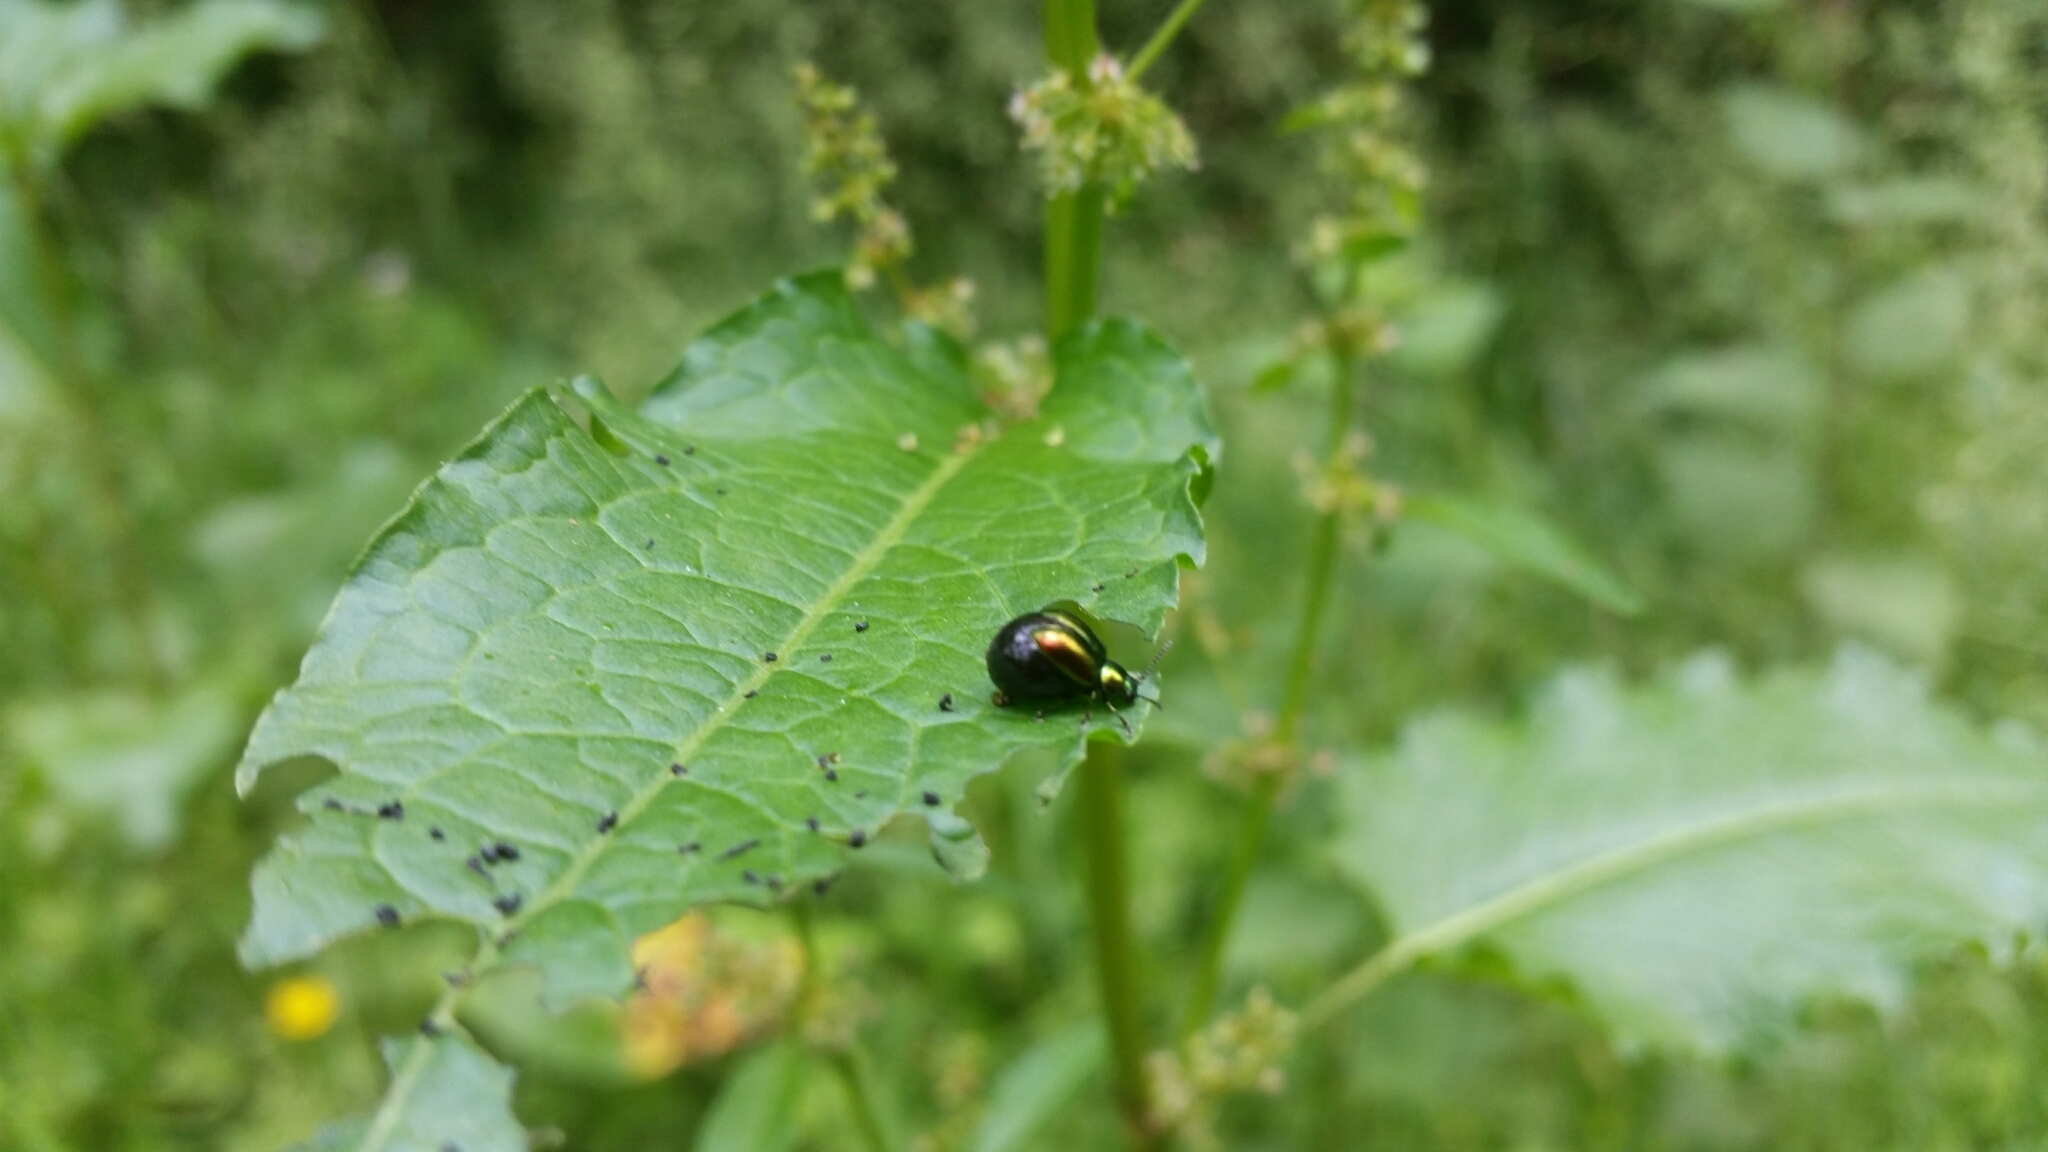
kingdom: Animalia
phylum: Arthropoda
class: Insecta
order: Coleoptera
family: Chrysomelidae
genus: Gastrophysa
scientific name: Gastrophysa viridula
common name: Green dock beetle
